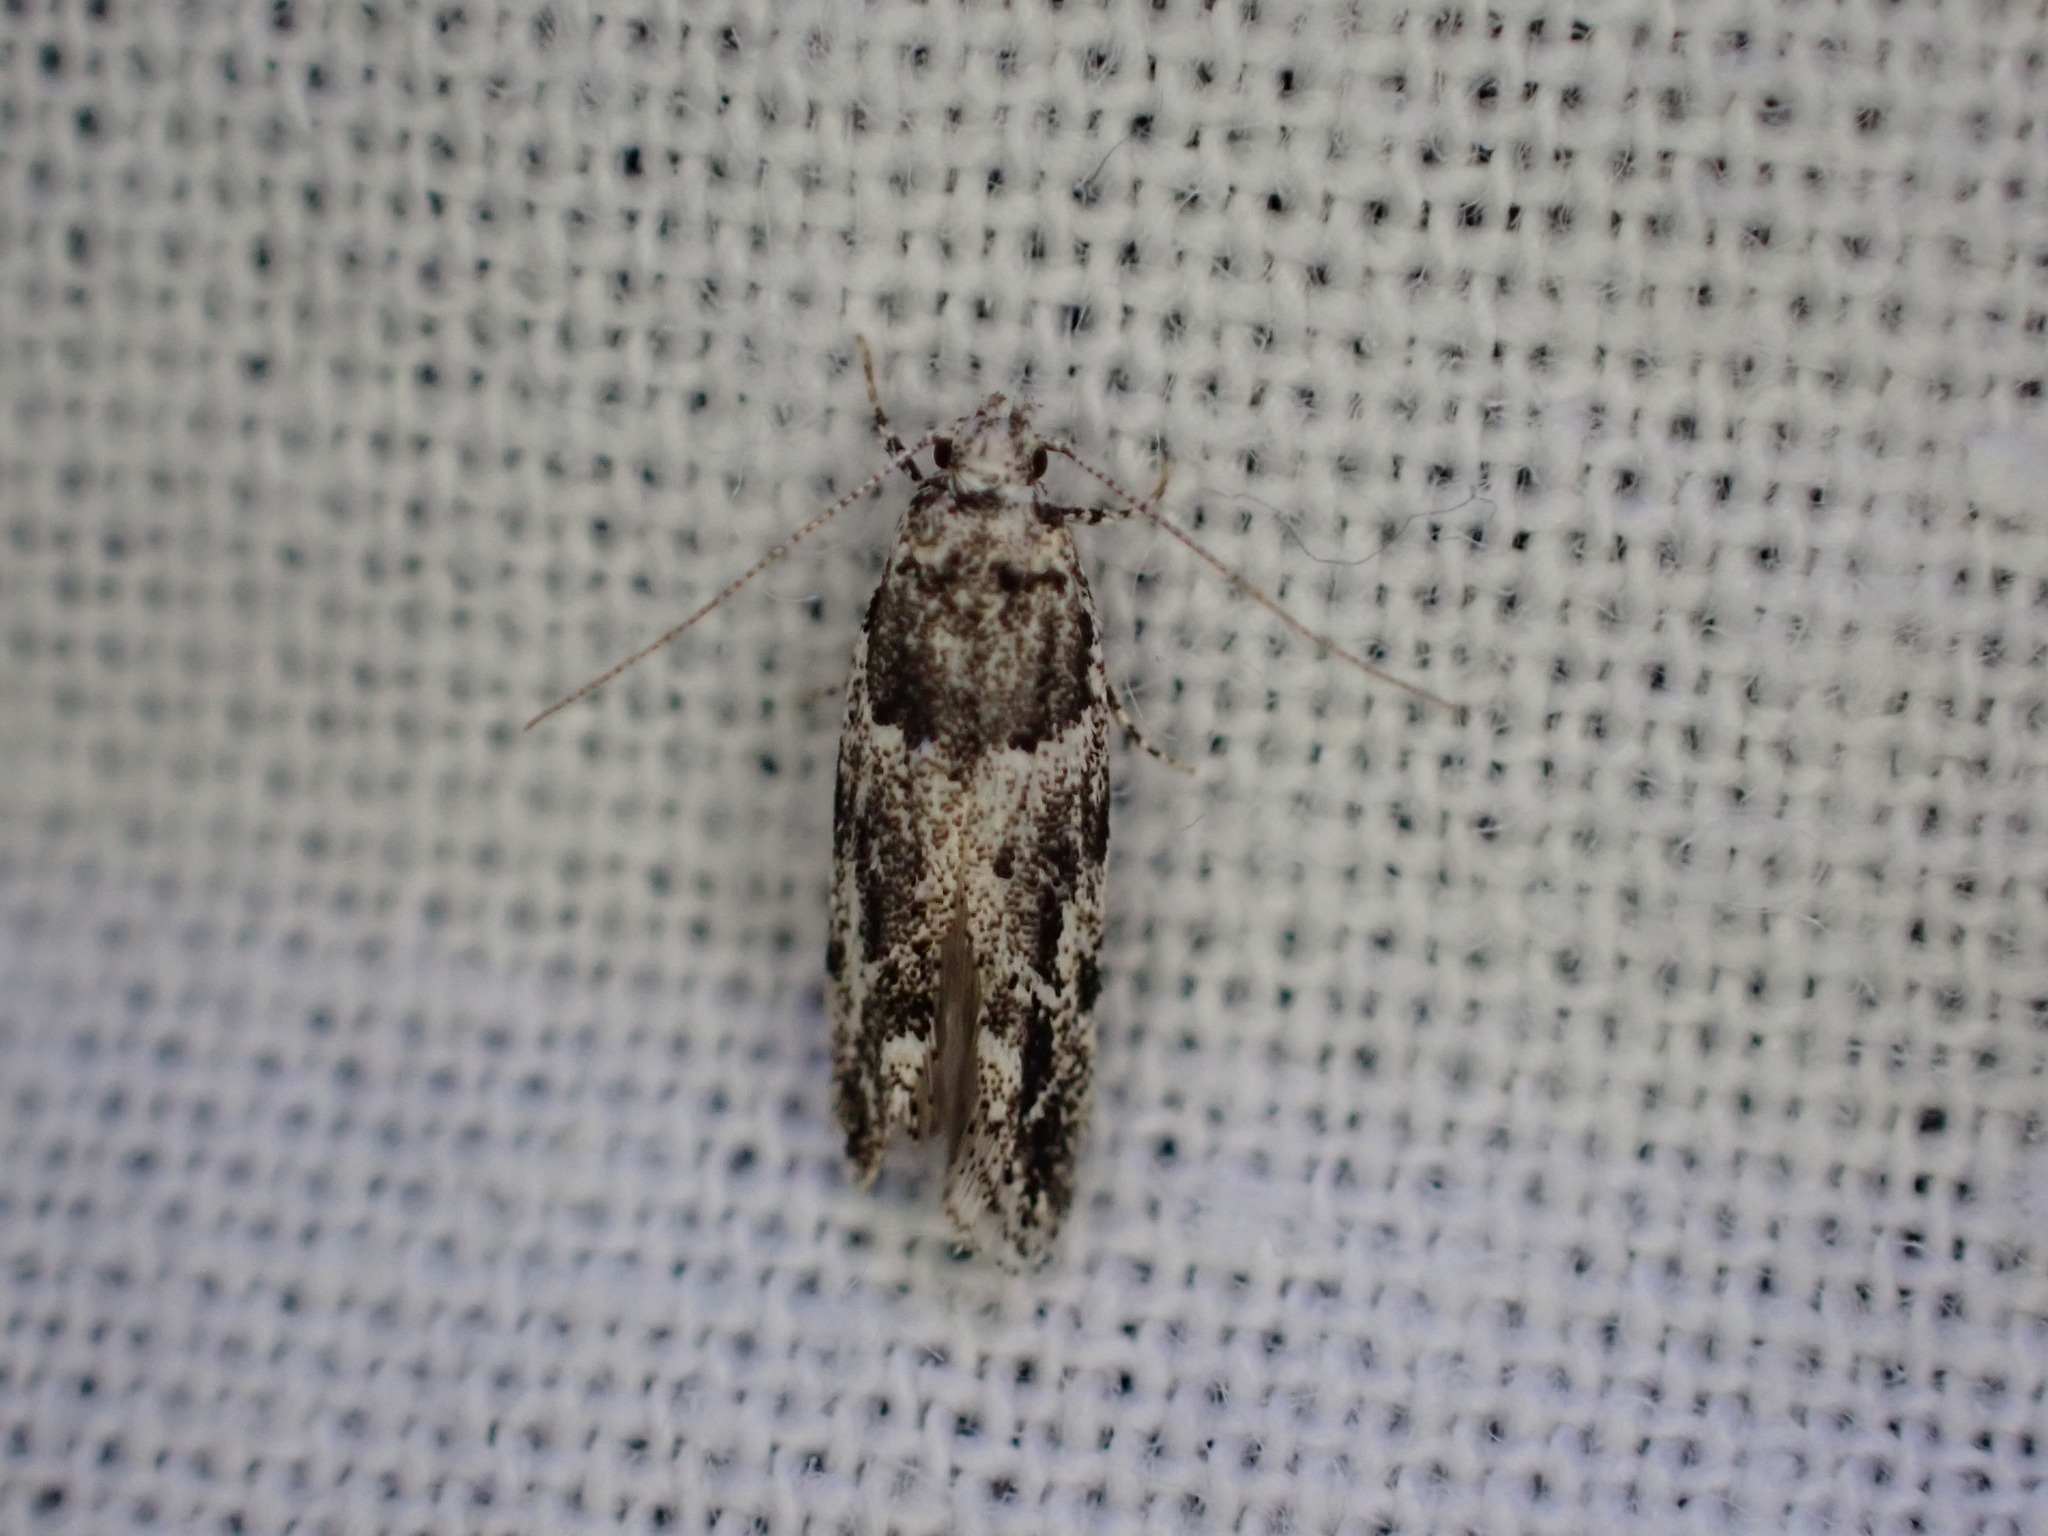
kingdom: Animalia
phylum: Arthropoda
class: Insecta
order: Lepidoptera
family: Gelechiidae
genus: Recurvaria
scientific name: Recurvaria nanella
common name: Gelechiid moth
